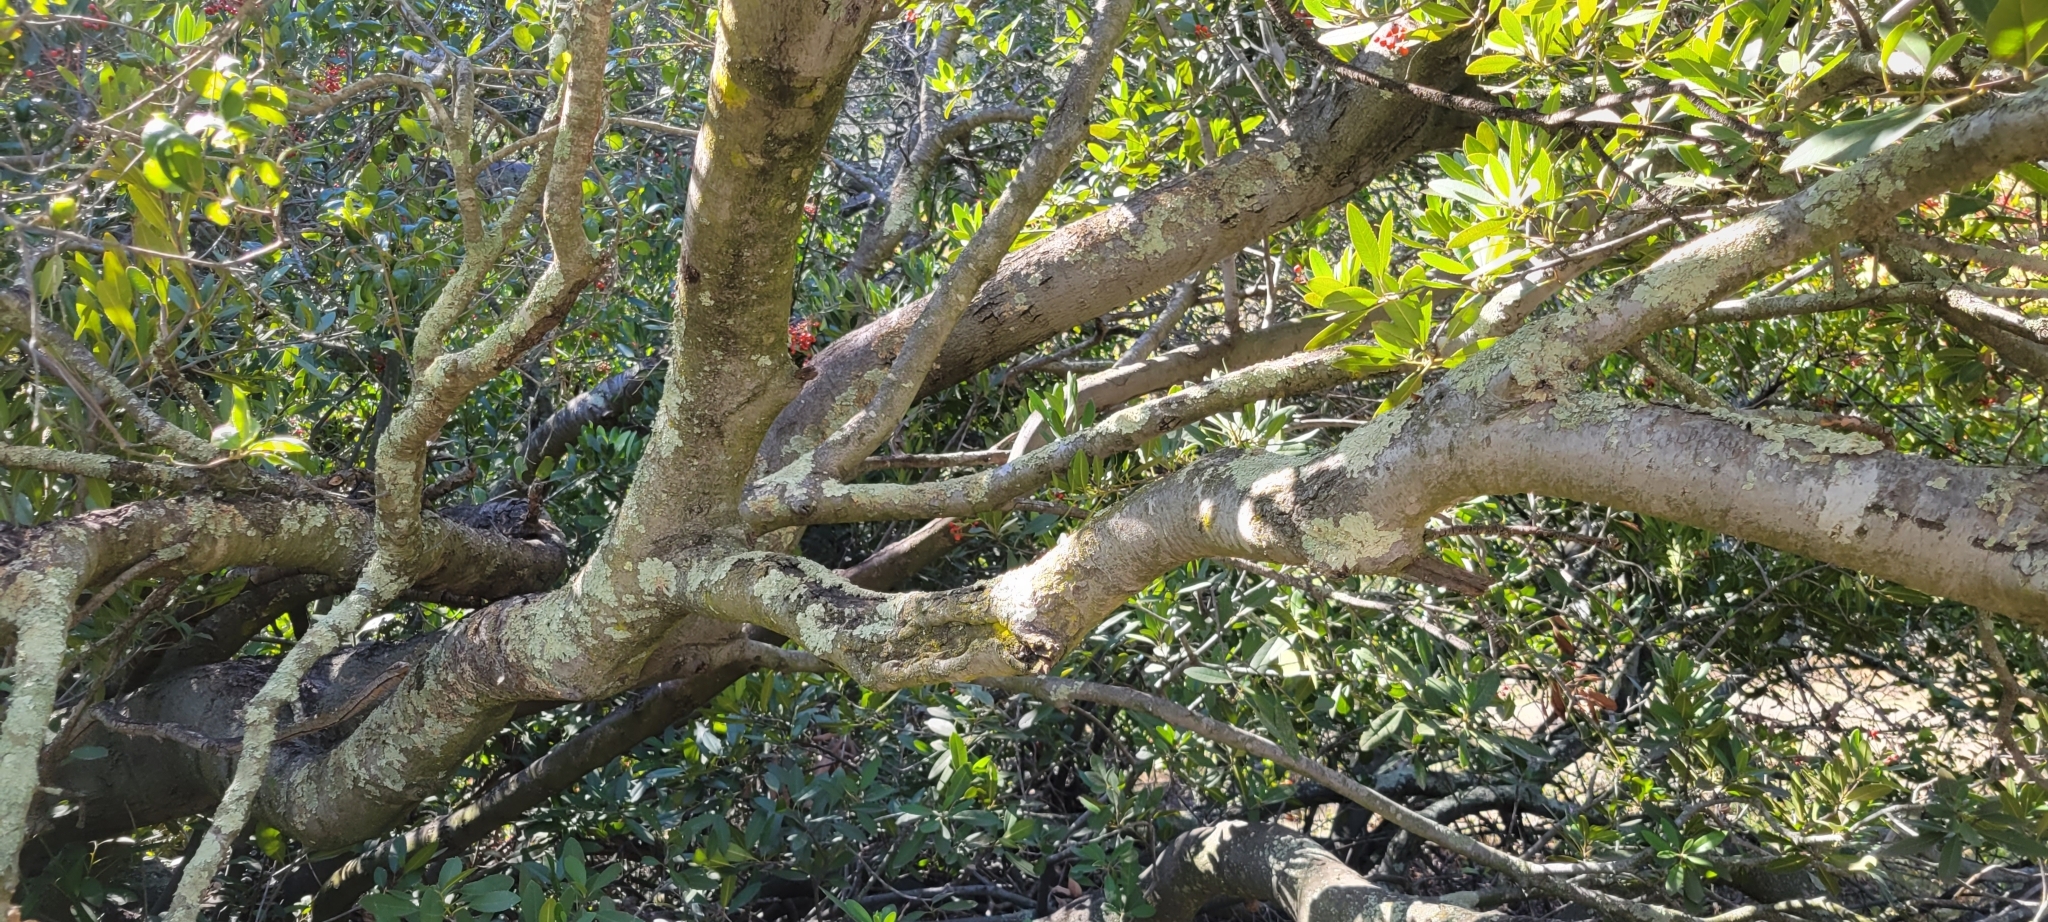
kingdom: Plantae
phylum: Tracheophyta
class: Magnoliopsida
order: Rosales
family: Rosaceae
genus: Heteromeles
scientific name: Heteromeles arbutifolia
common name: California-holly
